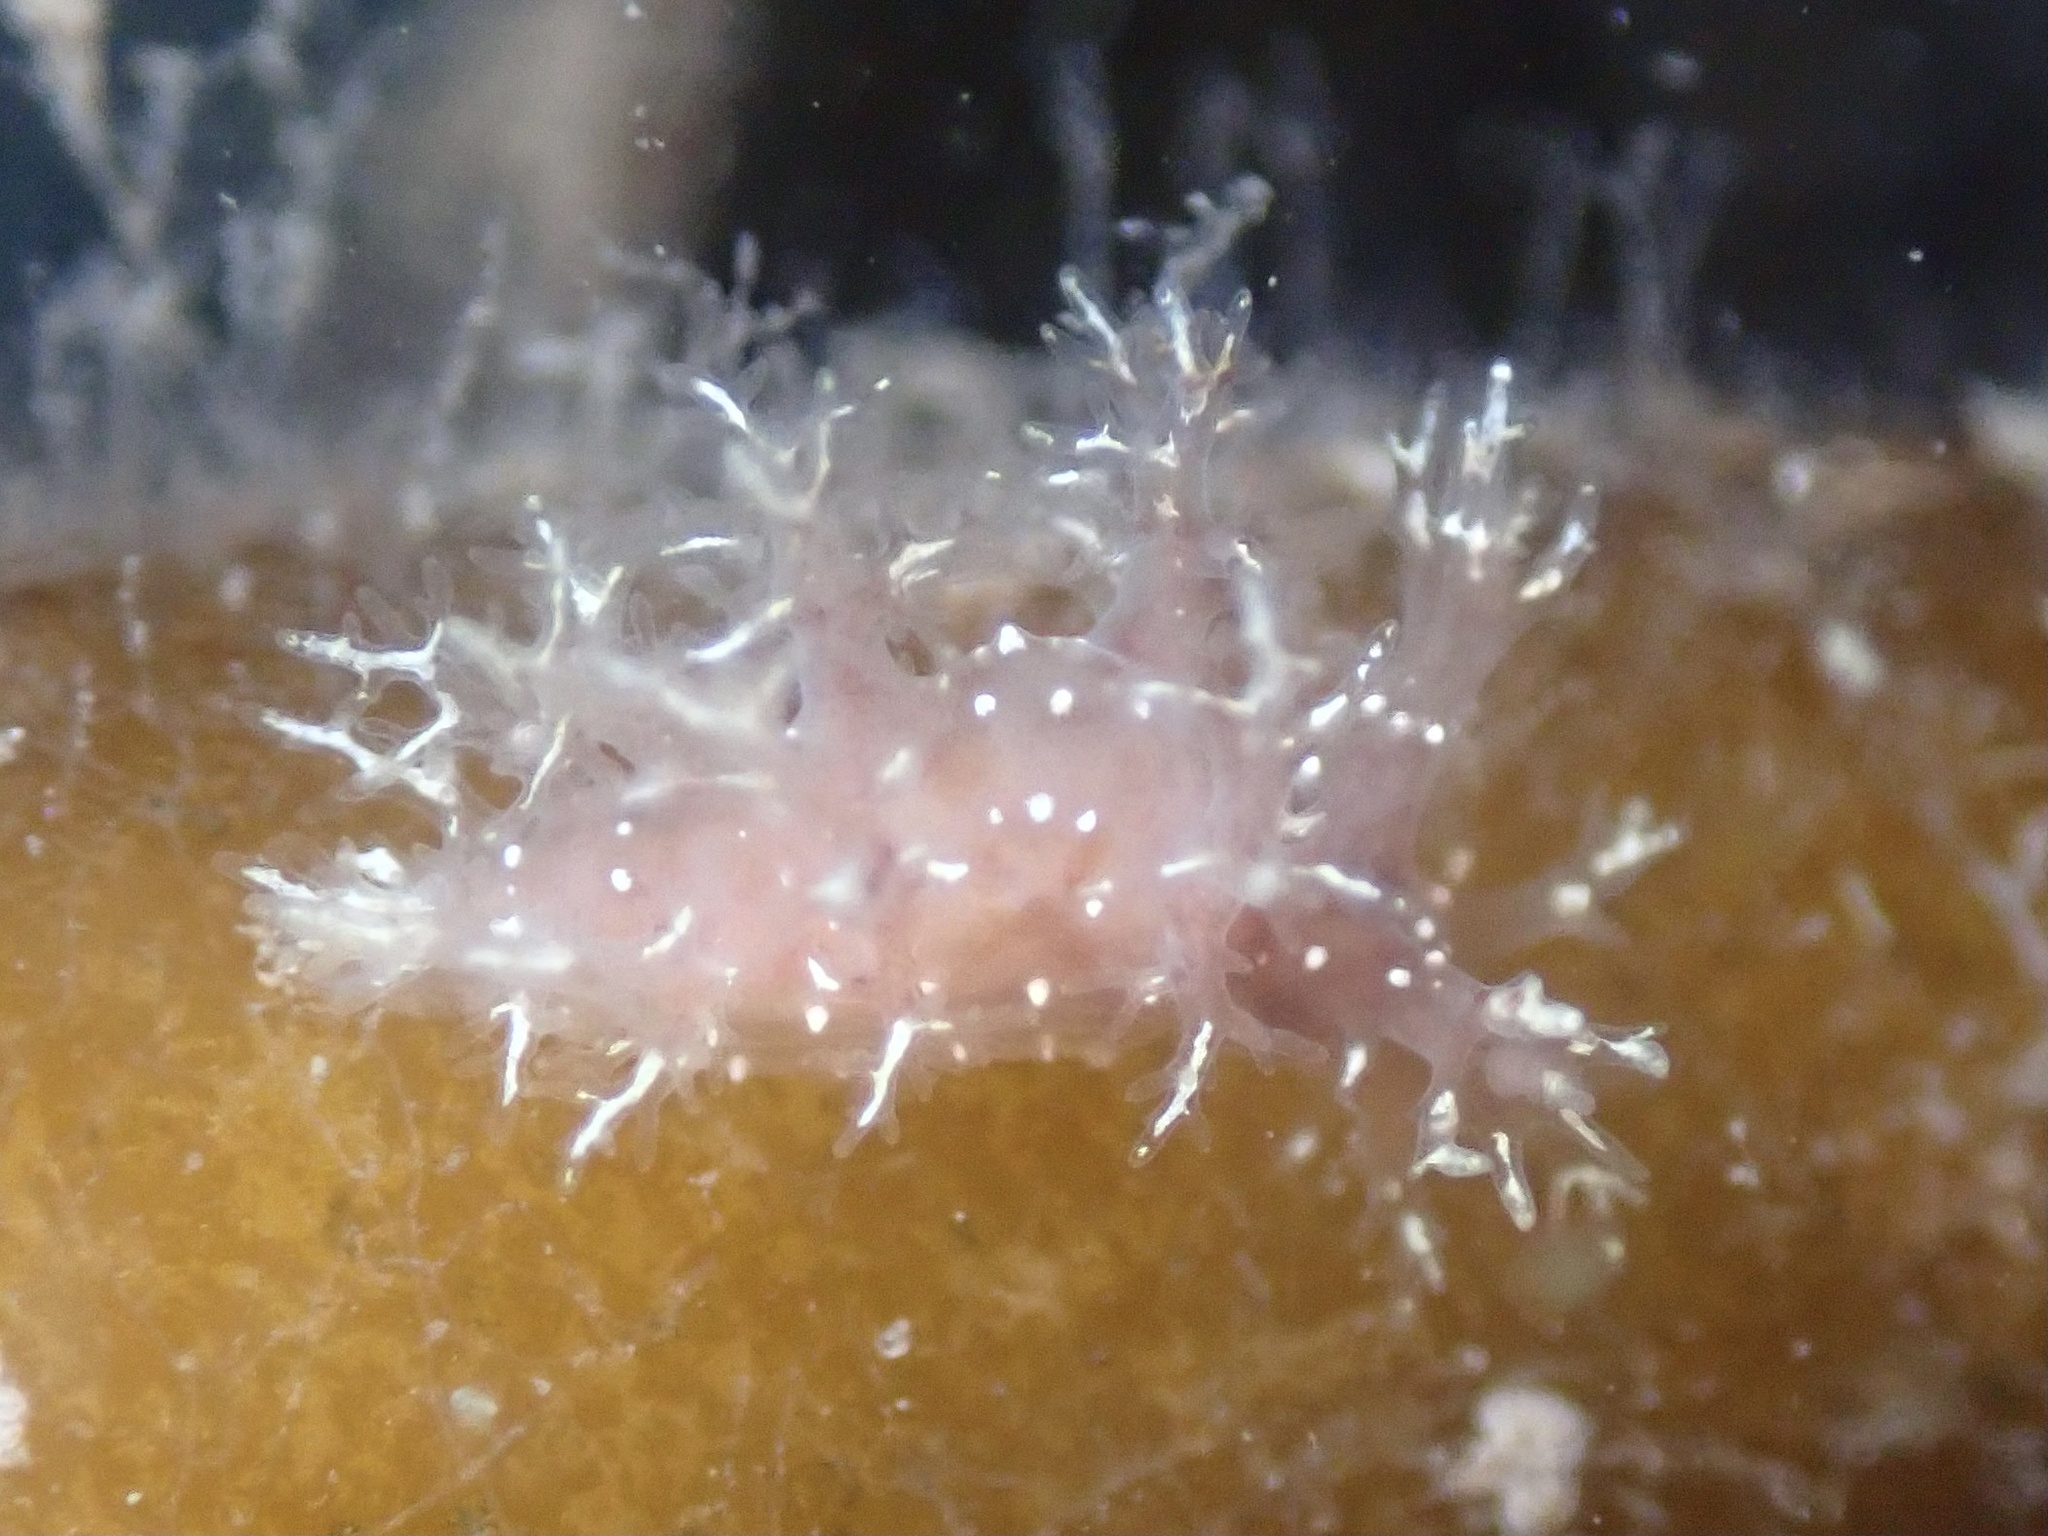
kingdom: Animalia
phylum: Mollusca
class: Gastropoda
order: Nudibranchia
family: Dendronotidae
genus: Dendronotus
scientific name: Dendronotus venustus
